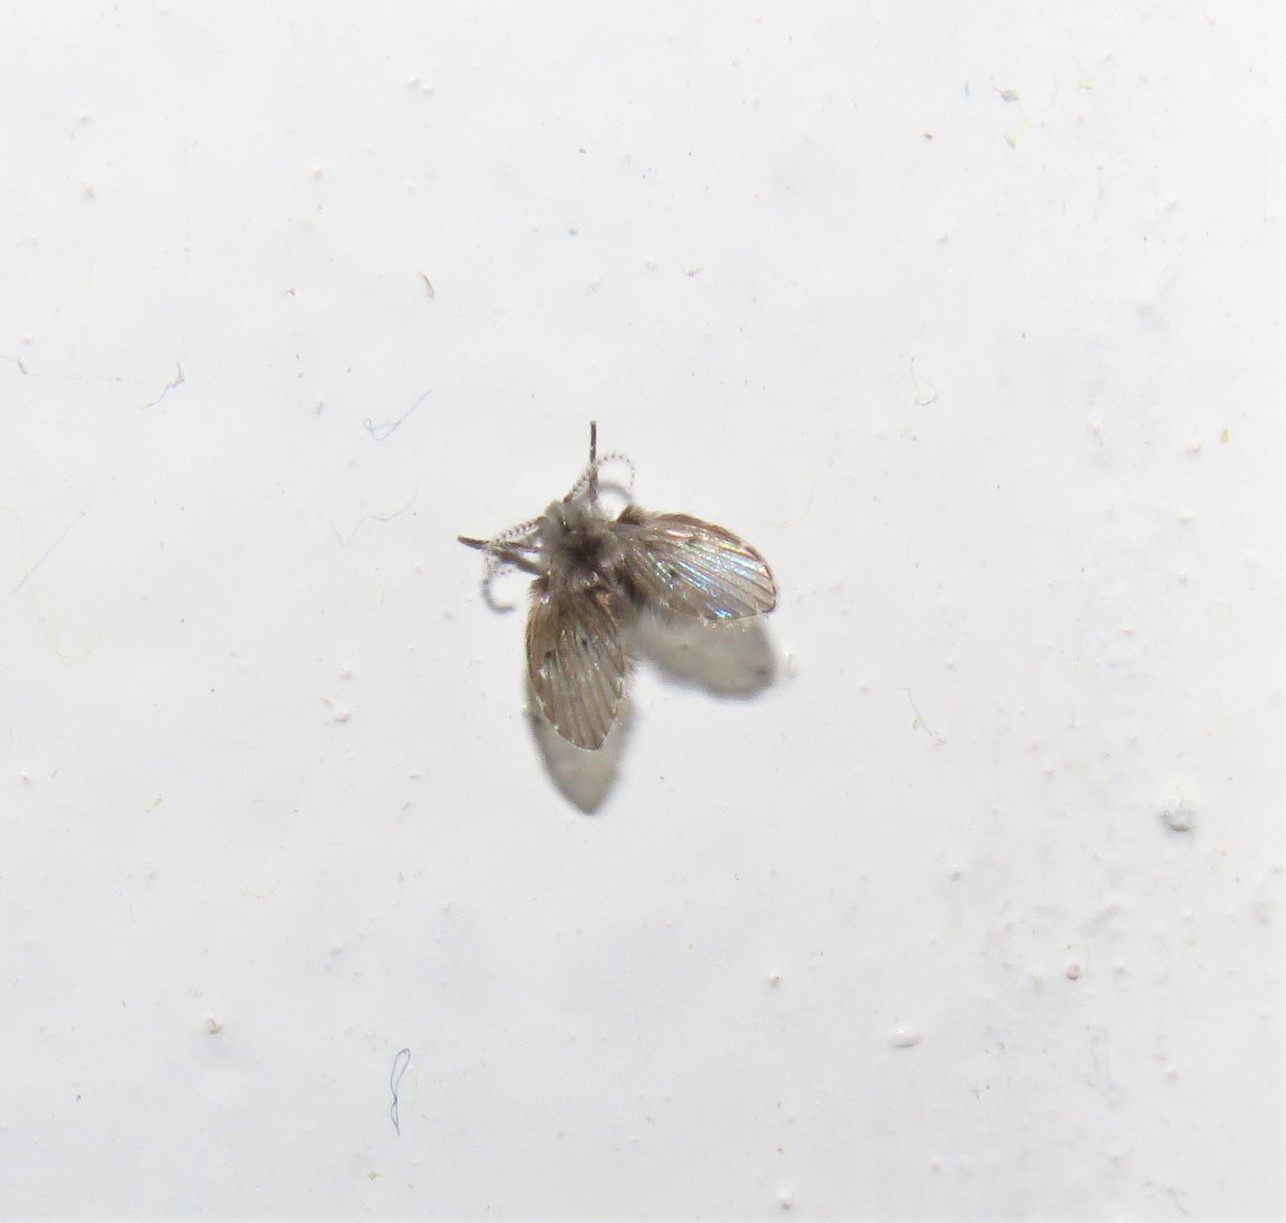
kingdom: Animalia
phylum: Arthropoda
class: Insecta
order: Diptera
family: Psychodidae
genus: Clogmia
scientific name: Clogmia albipunctatus
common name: White-spotted moth fly
